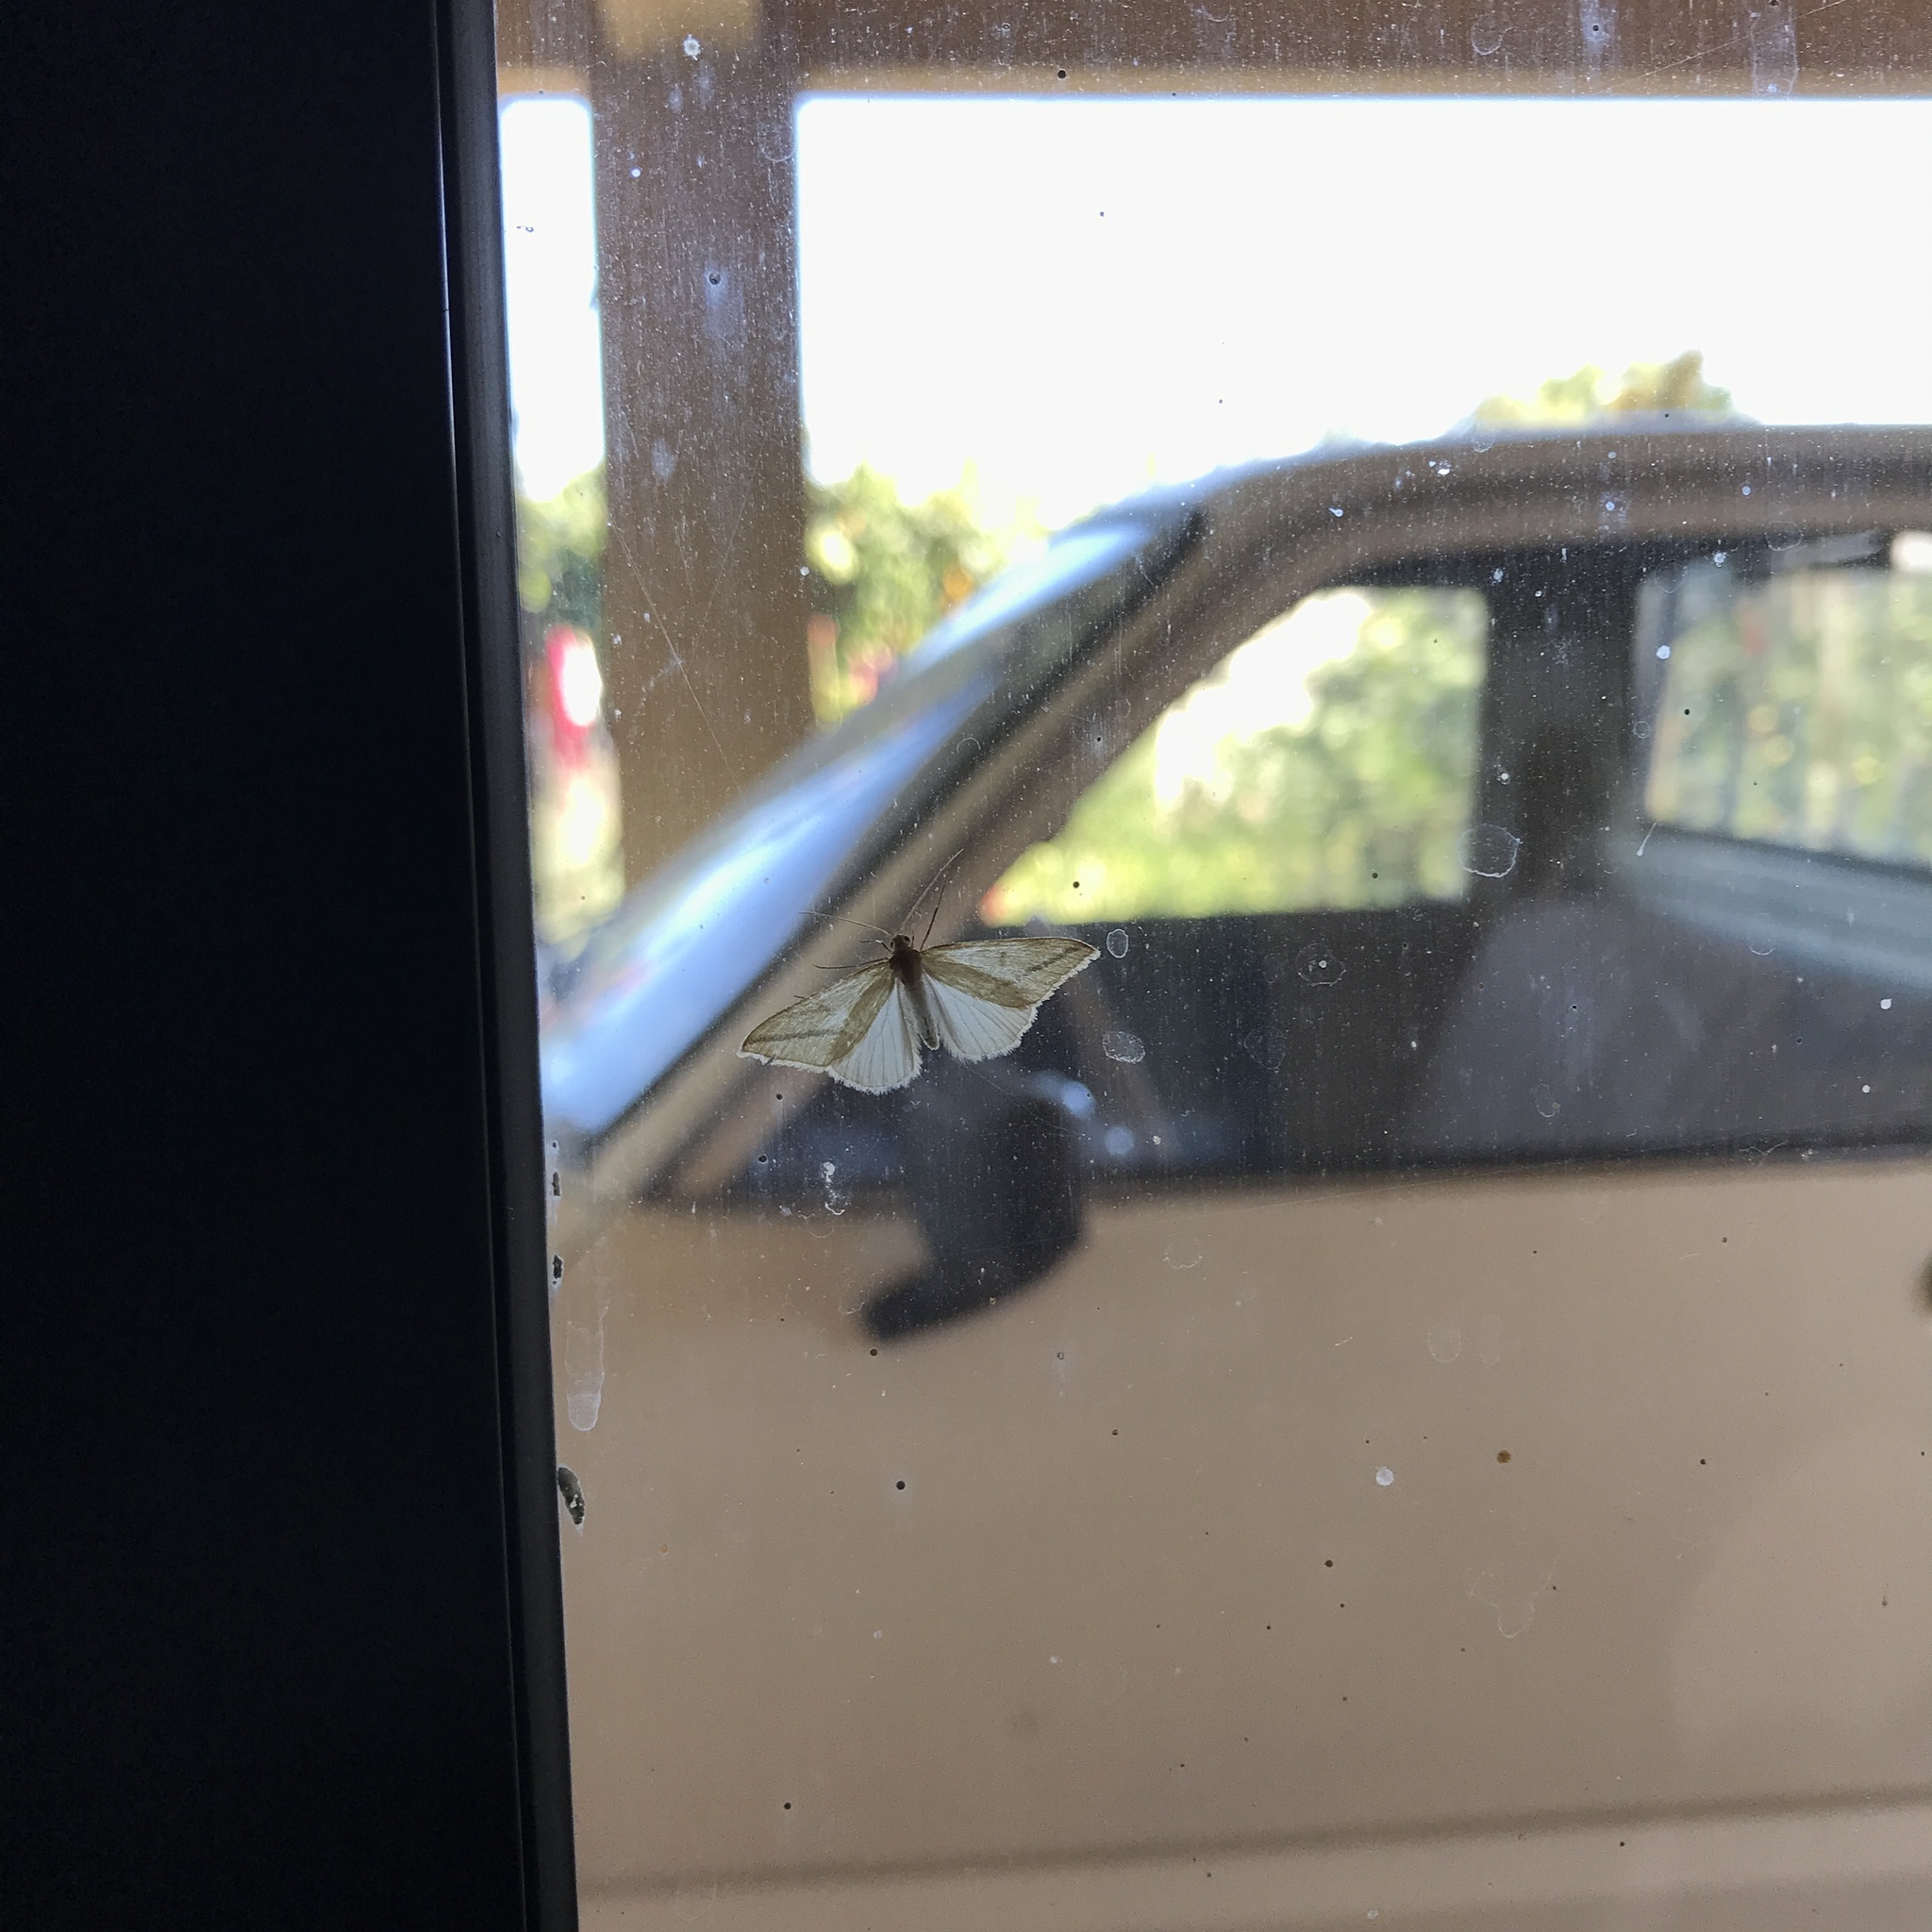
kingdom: Animalia
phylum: Arthropoda
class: Insecta
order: Lepidoptera
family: Geometridae
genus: Rhodometra
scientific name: Rhodometra sacraria
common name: Vestal
